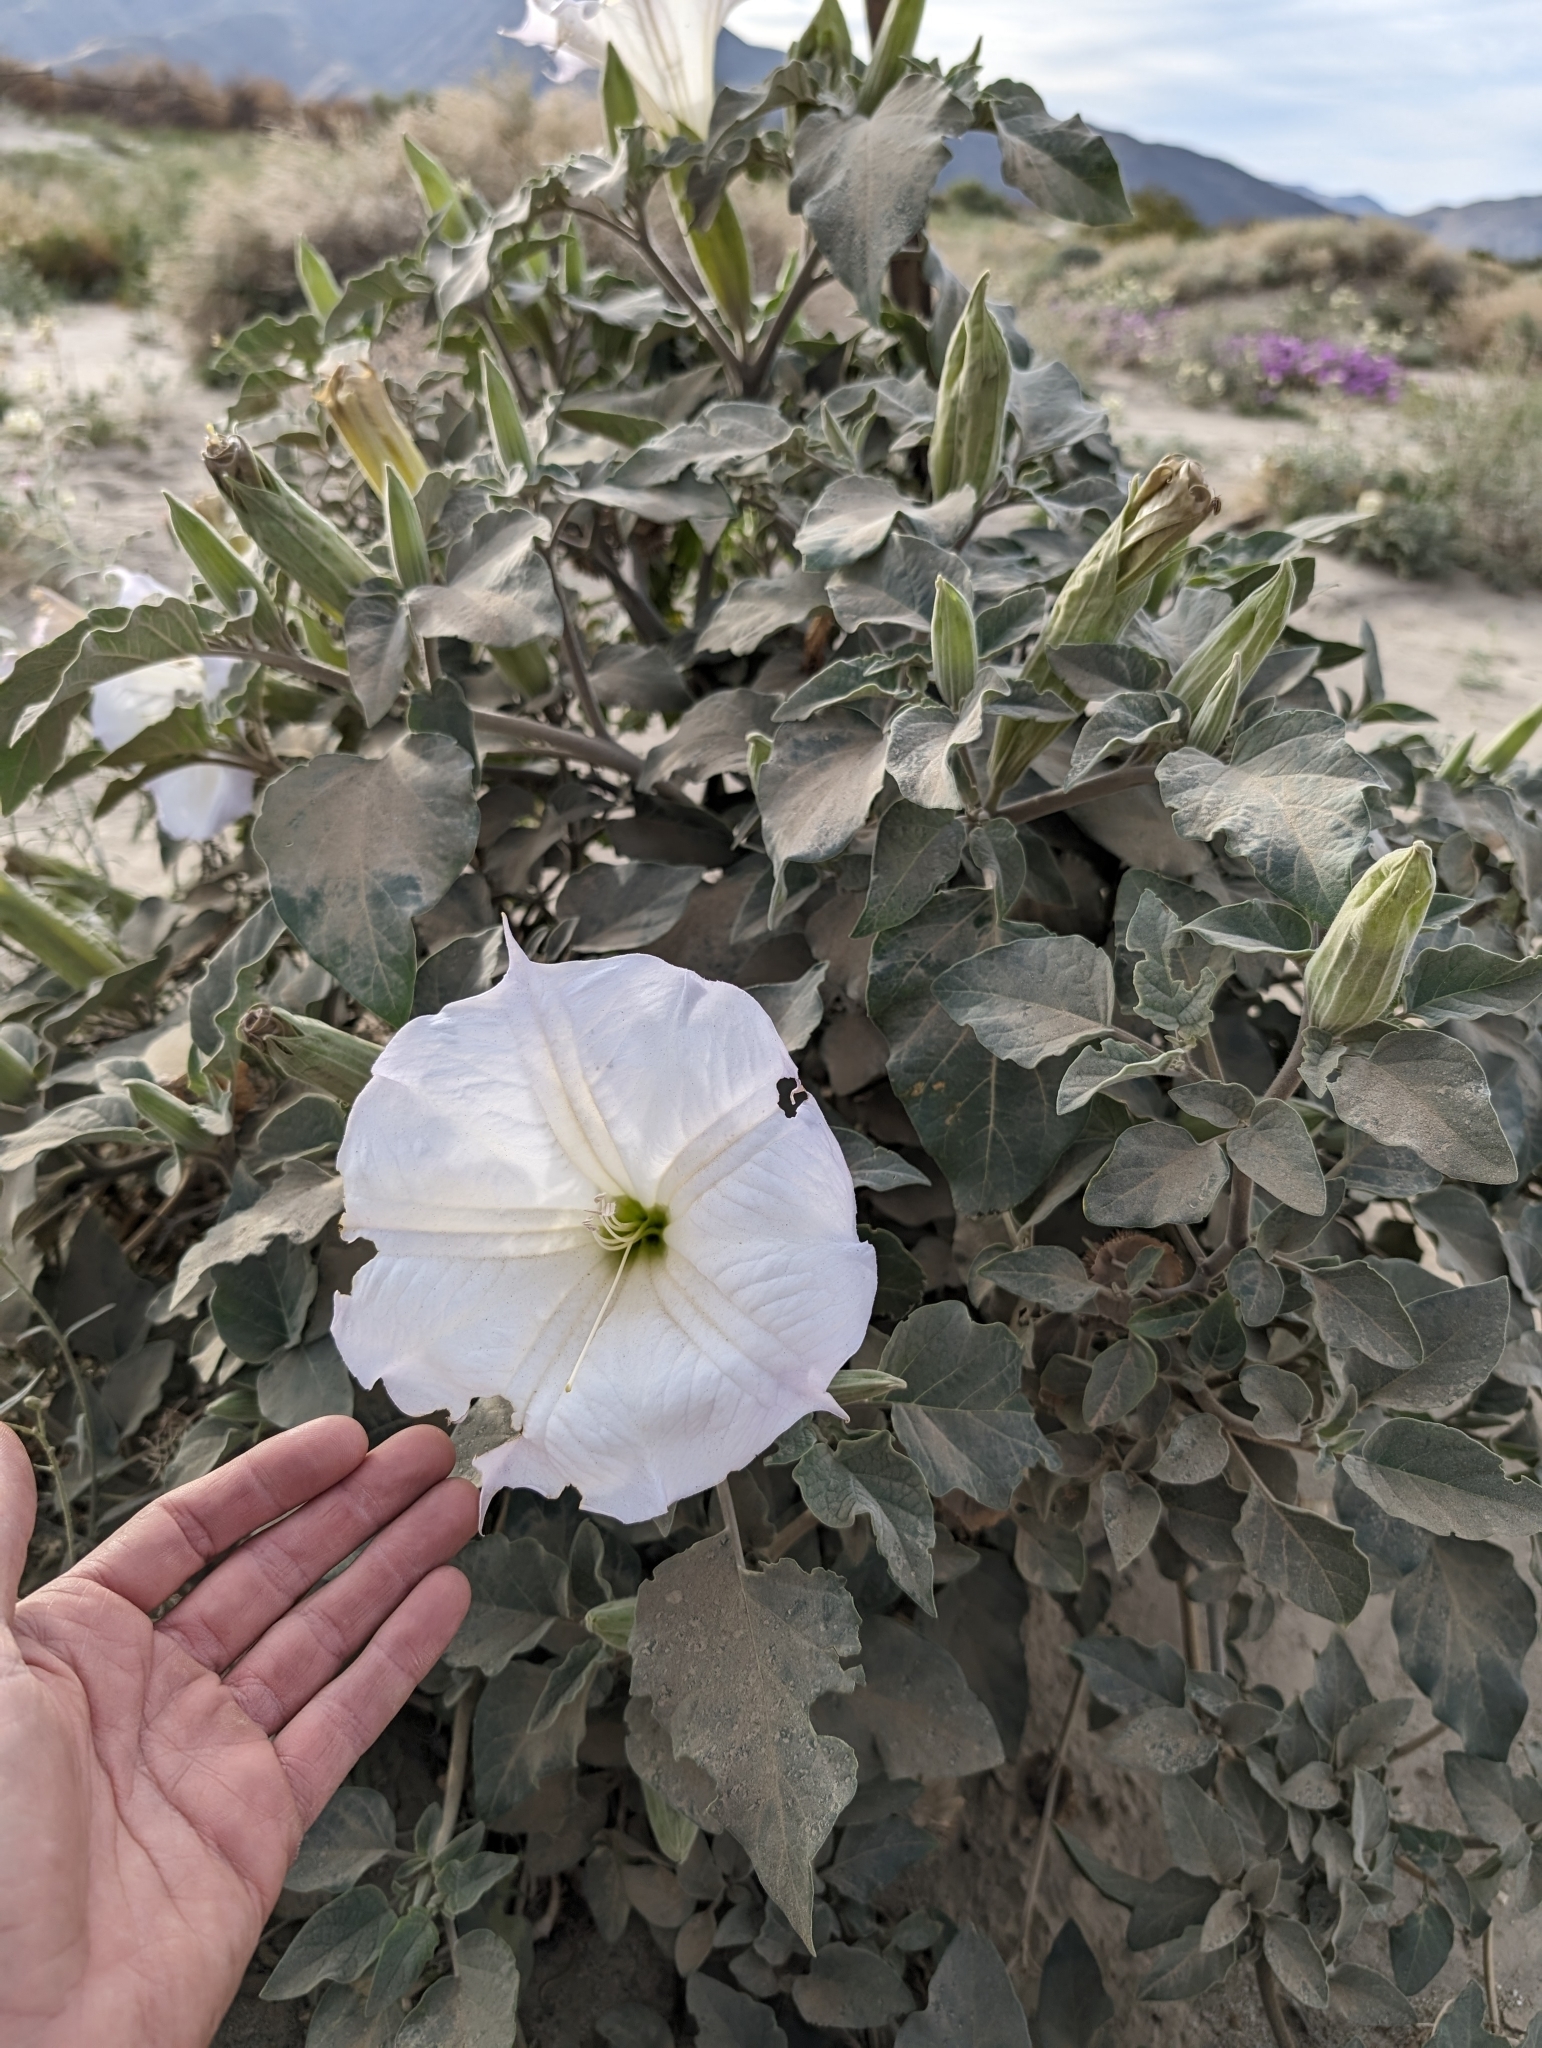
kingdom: Plantae
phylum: Tracheophyta
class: Magnoliopsida
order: Solanales
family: Solanaceae
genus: Datura
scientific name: Datura wrightii
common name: Sacred thorn-apple
